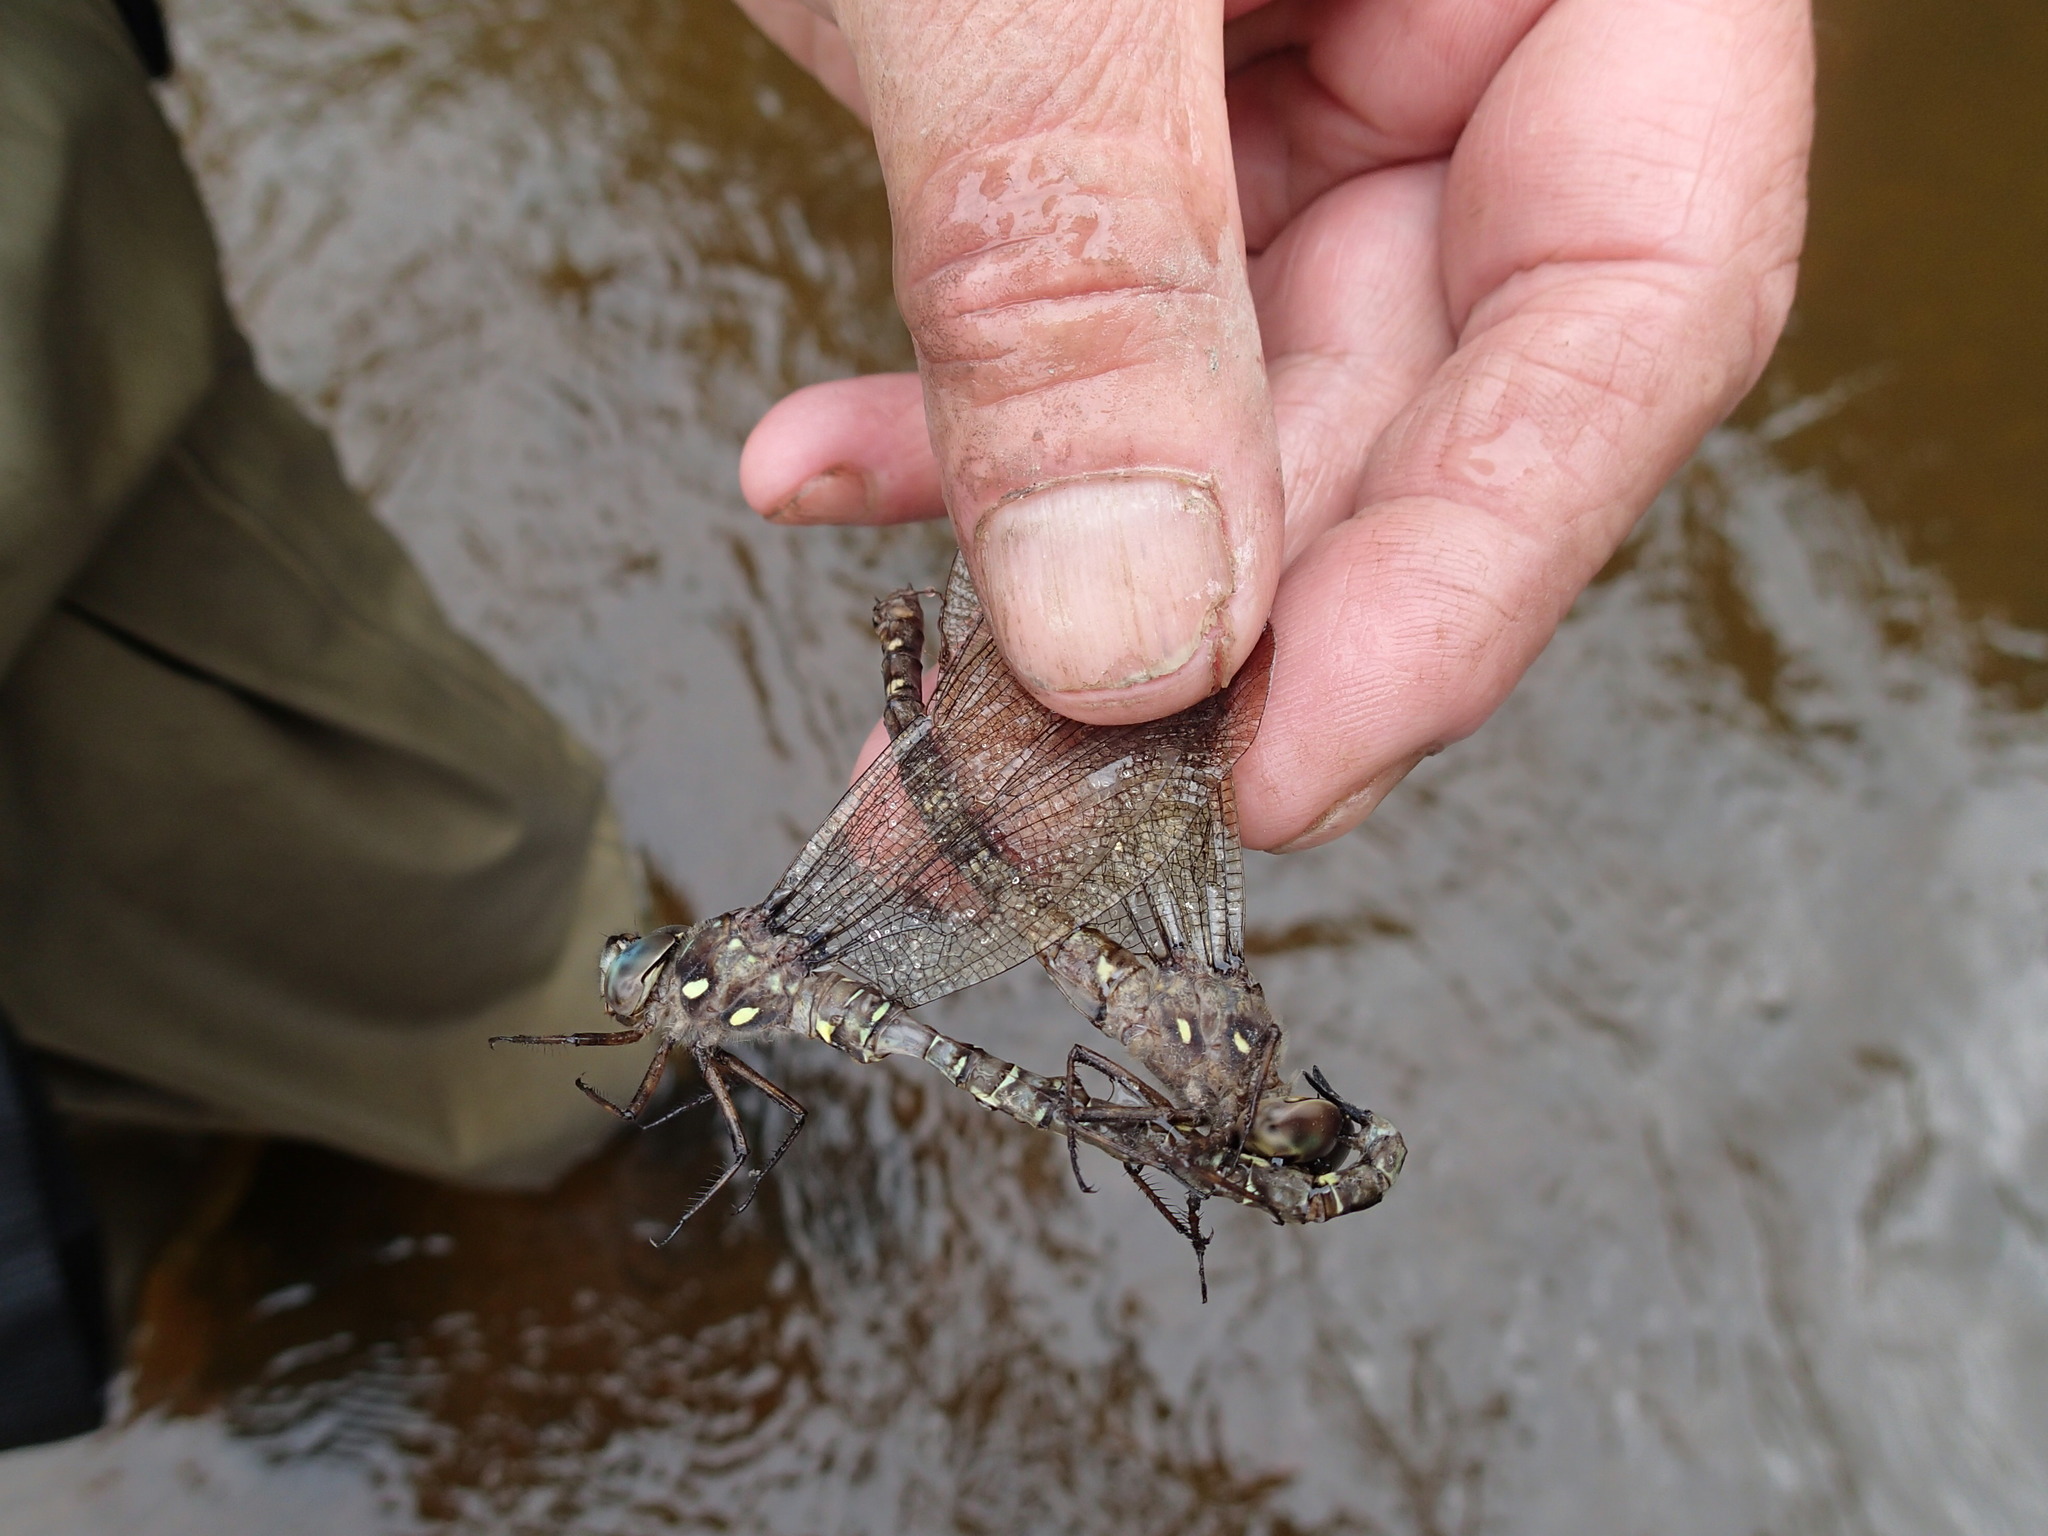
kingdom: Animalia
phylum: Arthropoda
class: Insecta
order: Odonata
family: Aeshnidae
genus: Boyeria
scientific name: Boyeria grafiana
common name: Ocellated darner
